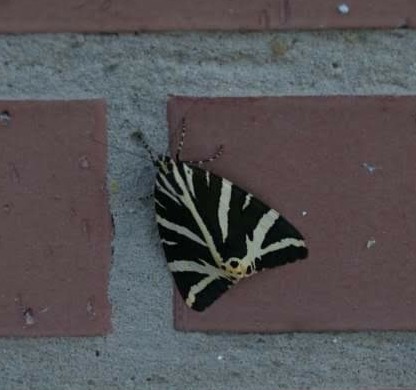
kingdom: Animalia
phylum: Arthropoda
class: Insecta
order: Lepidoptera
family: Erebidae
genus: Euplagia
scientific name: Euplagia quadripunctaria
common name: Jersey tiger
